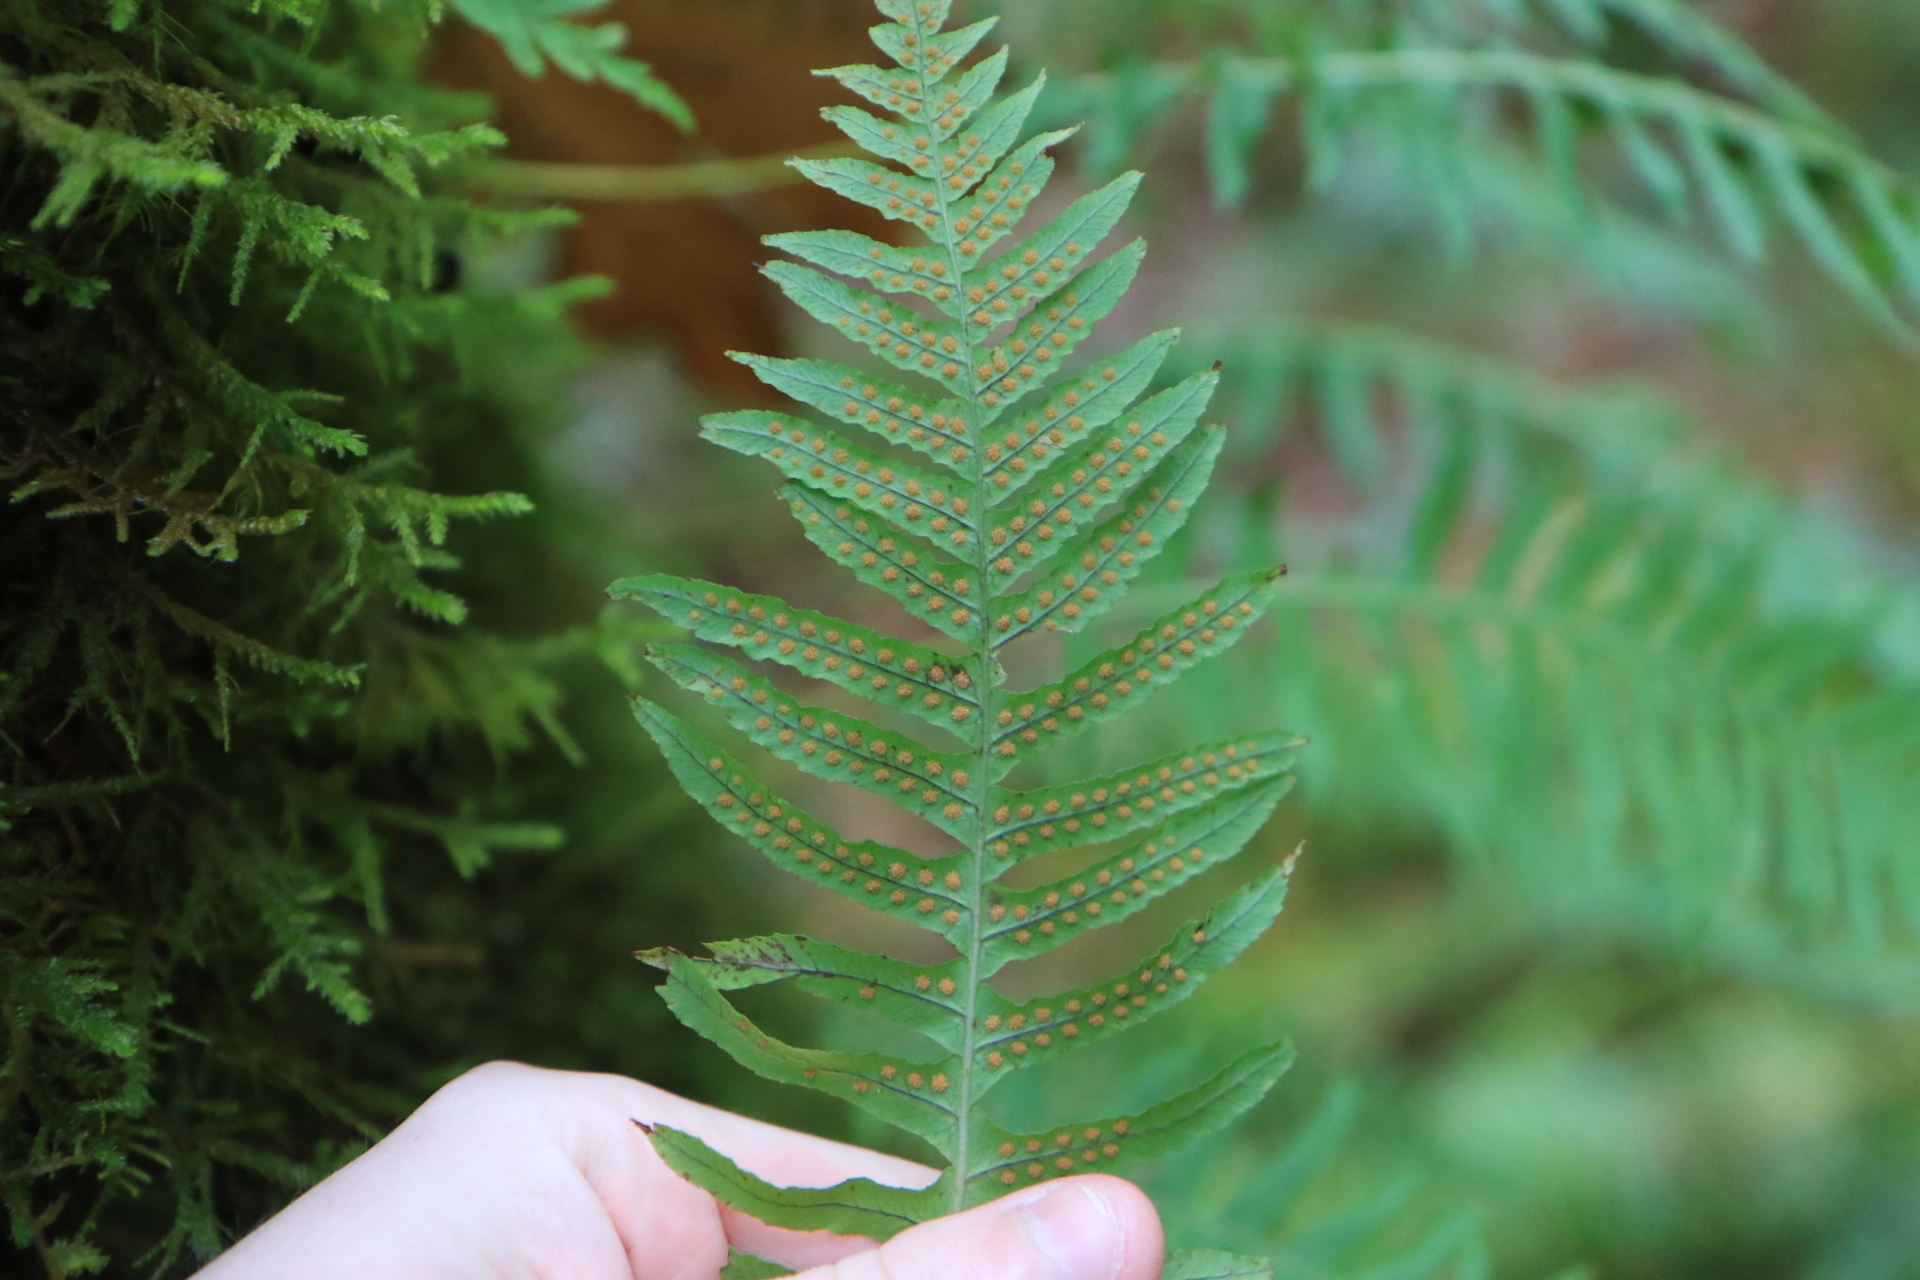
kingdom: Plantae
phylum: Tracheophyta
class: Polypodiopsida
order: Polypodiales
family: Polypodiaceae
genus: Polypodium
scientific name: Polypodium glycyrrhiza
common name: Licorice fern
